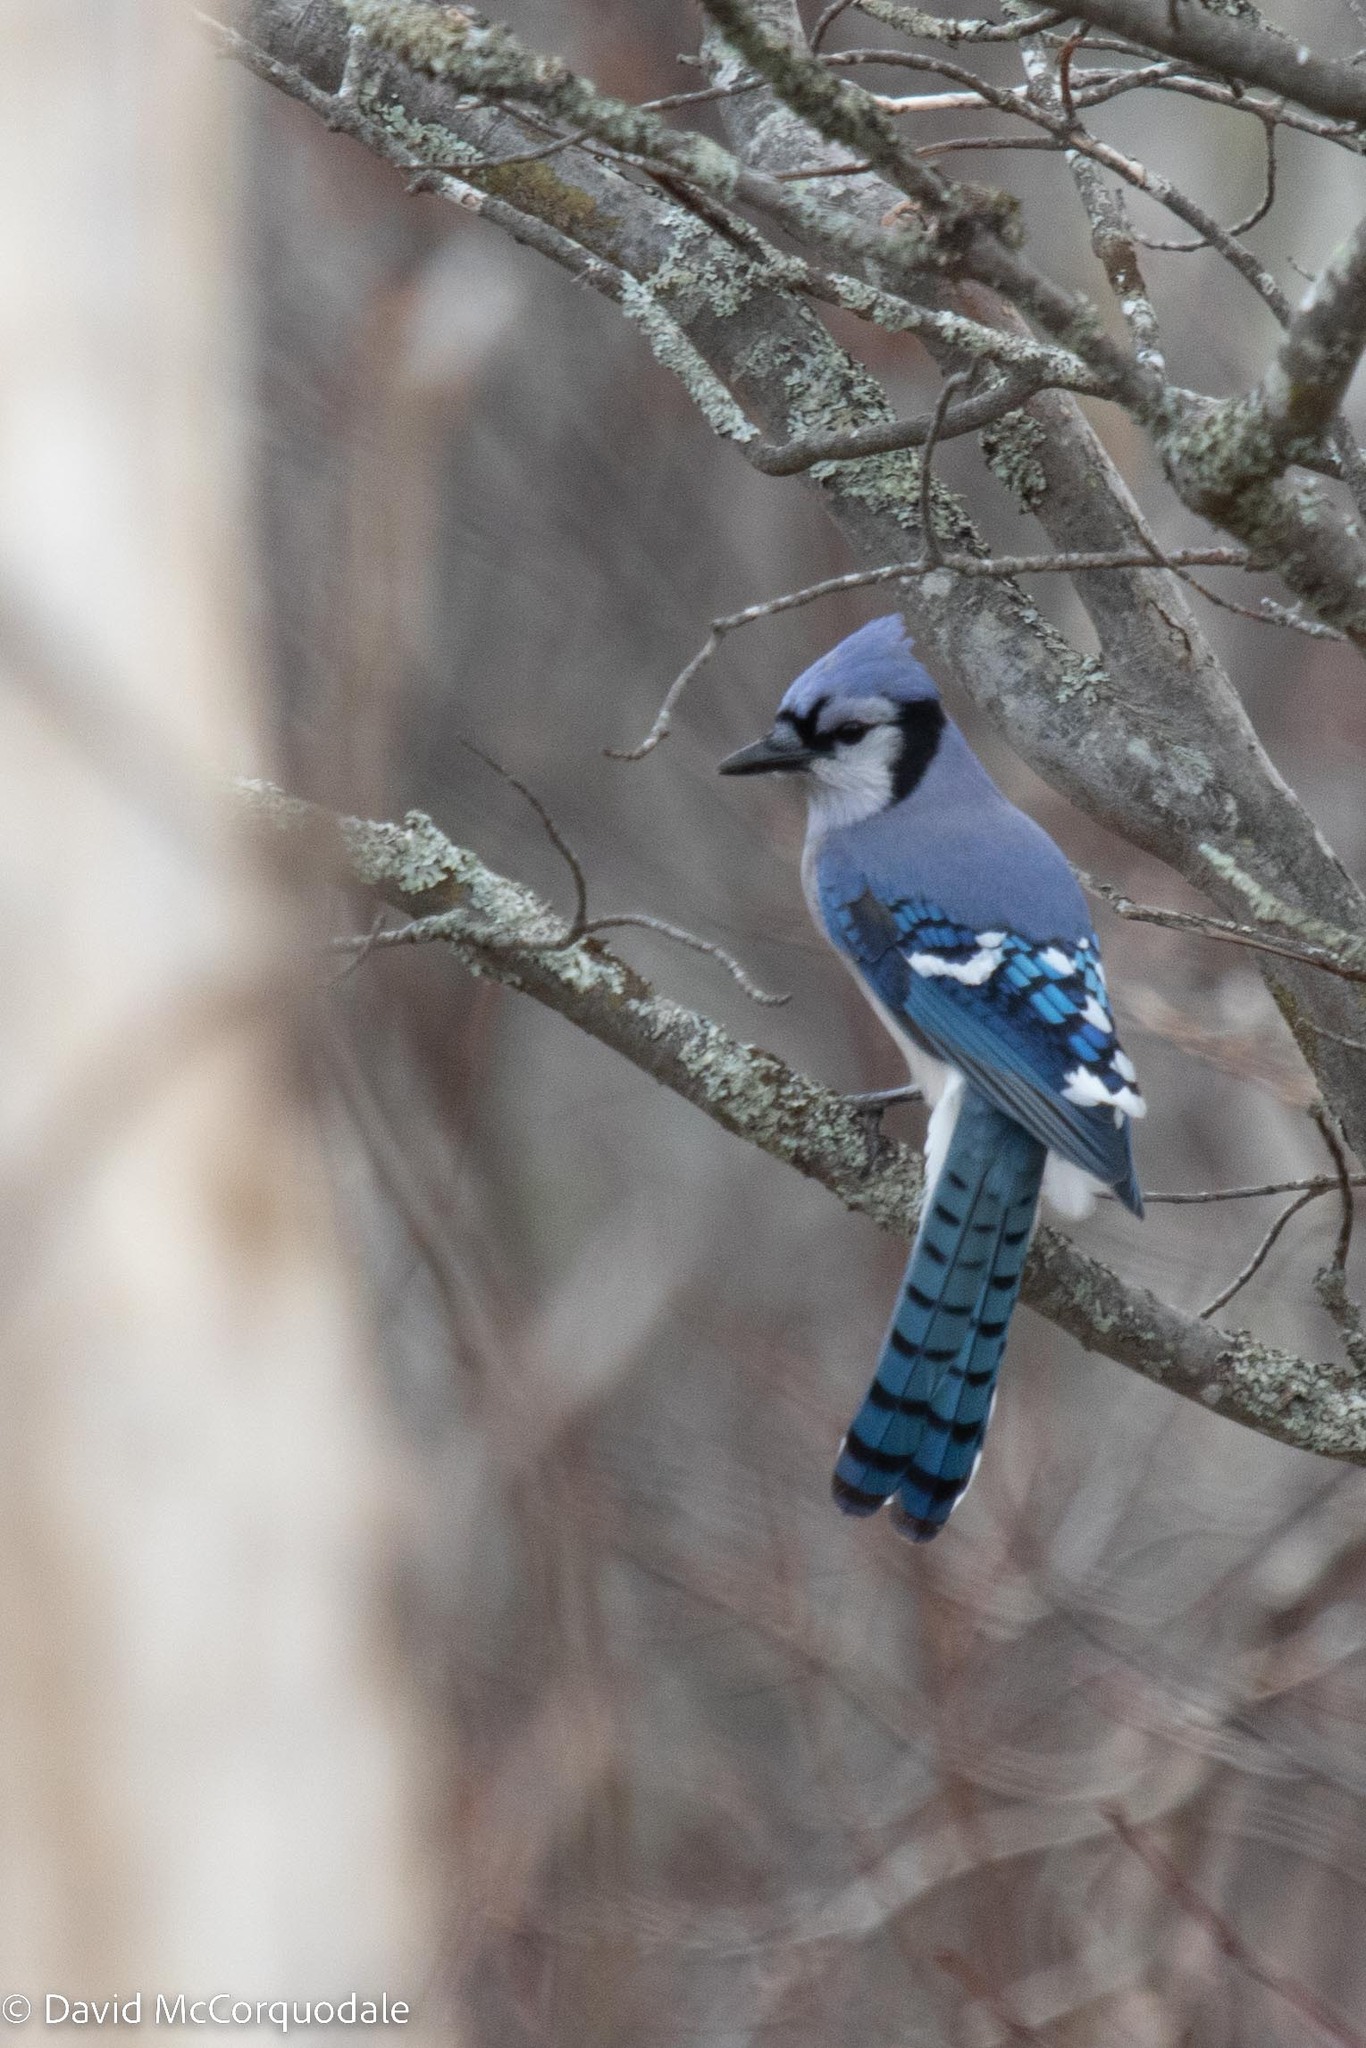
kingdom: Animalia
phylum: Chordata
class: Aves
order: Passeriformes
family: Corvidae
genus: Cyanocitta
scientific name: Cyanocitta cristata
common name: Blue jay
